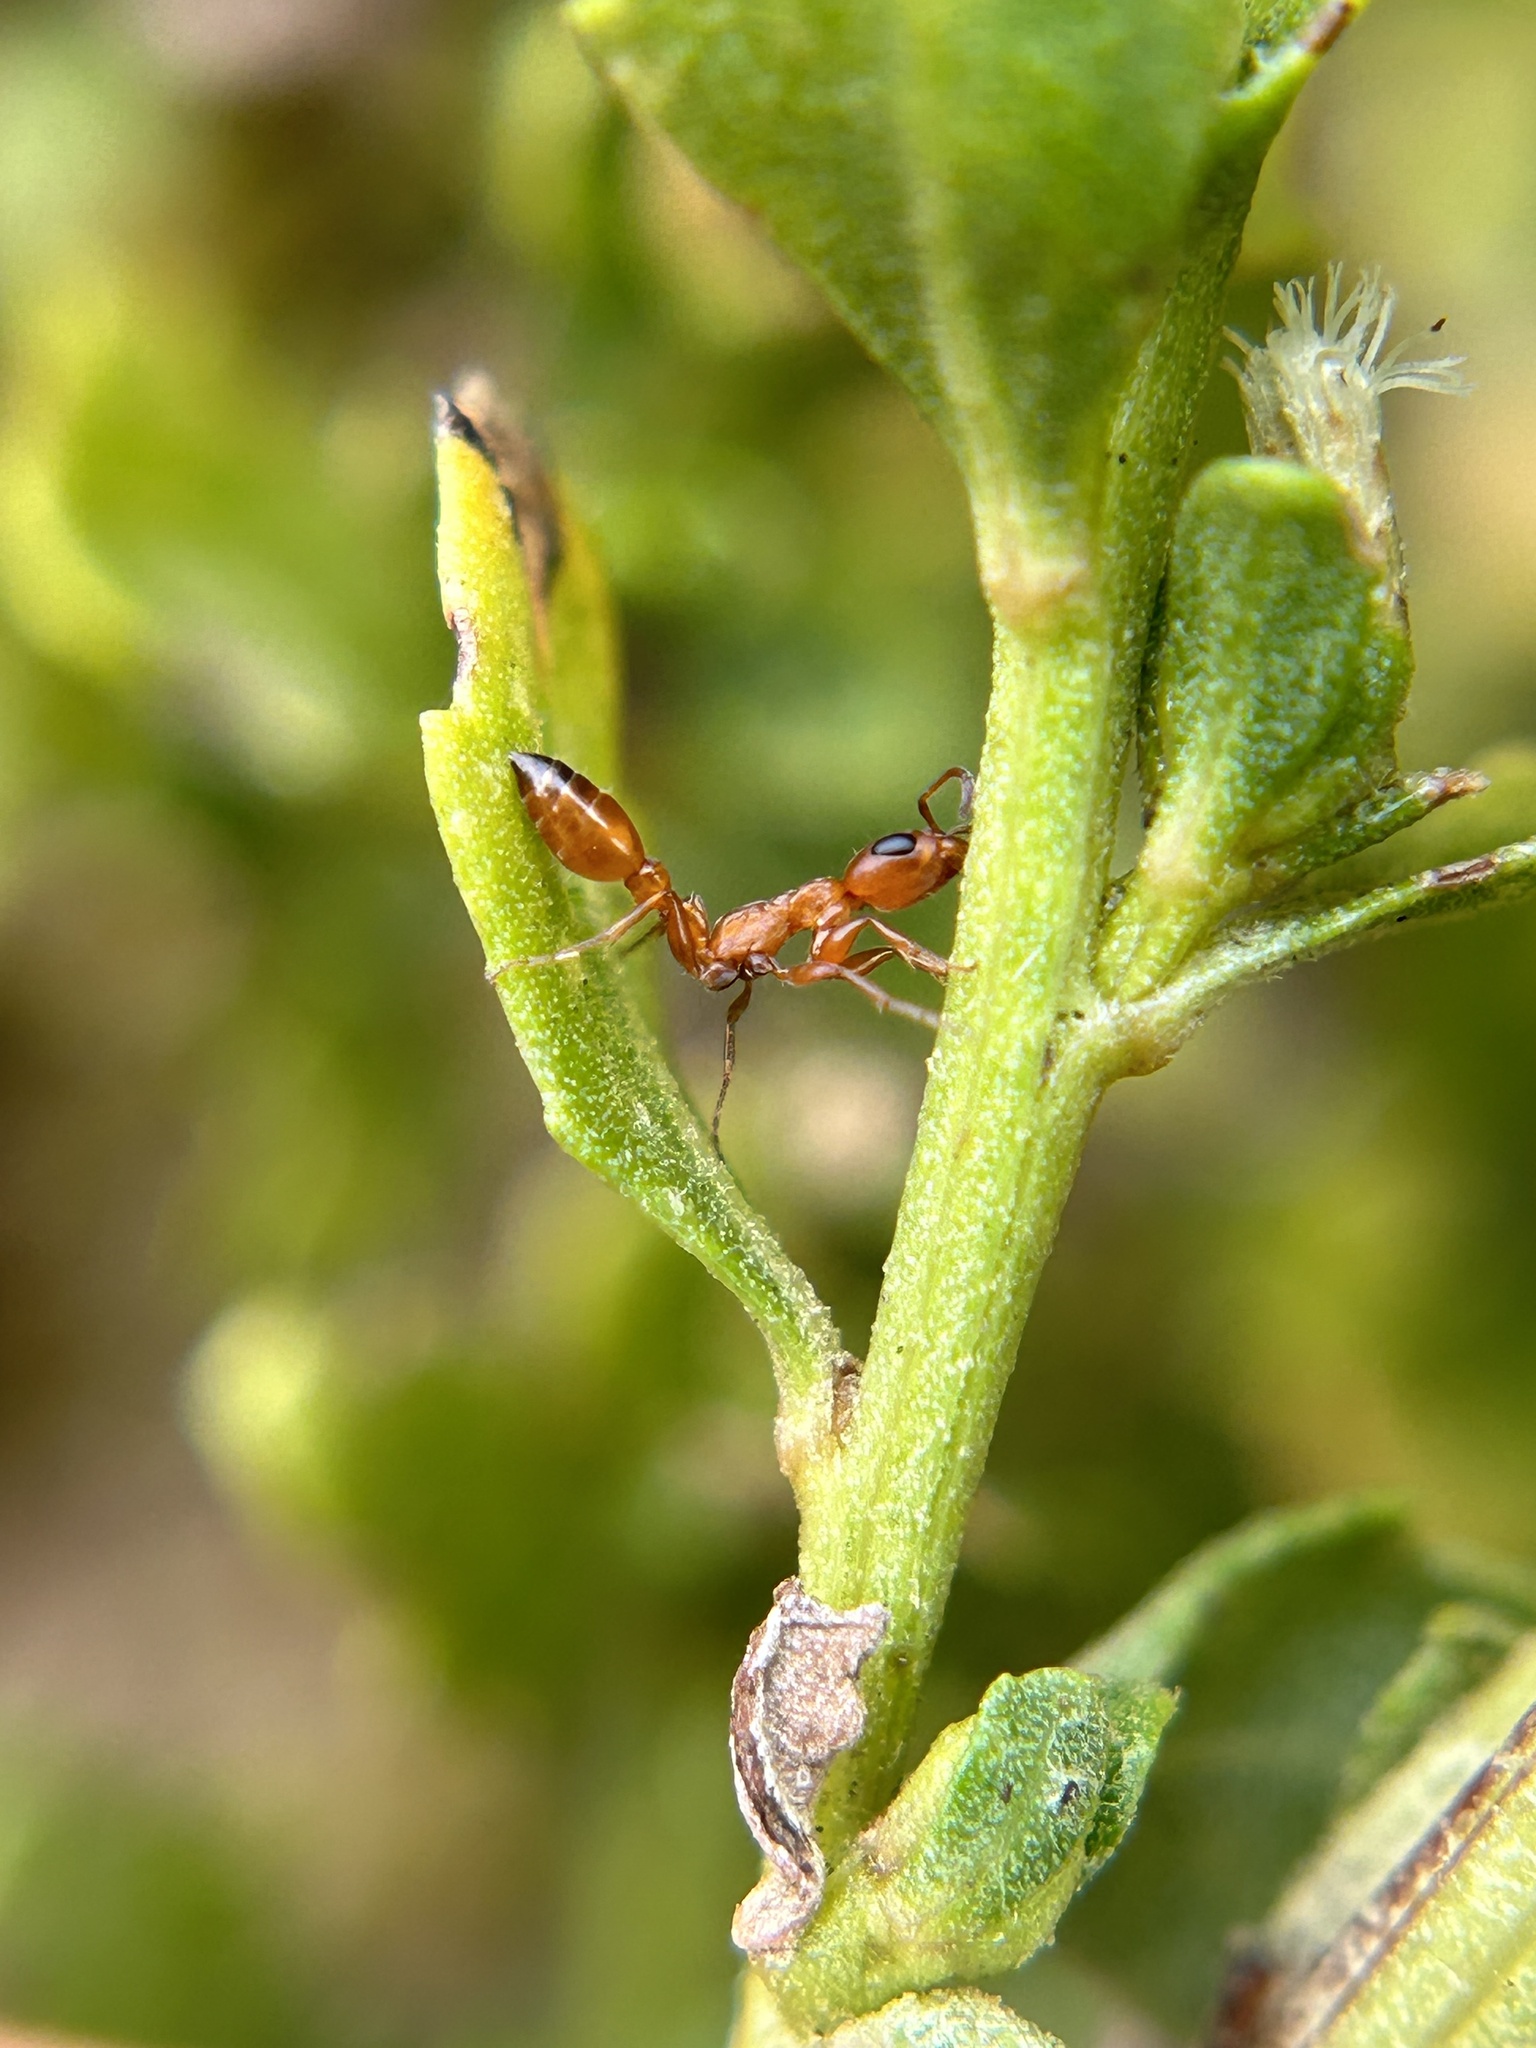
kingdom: Animalia
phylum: Arthropoda
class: Insecta
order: Hymenoptera
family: Formicidae
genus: Pseudomyrmex
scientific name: Pseudomyrmex apache
